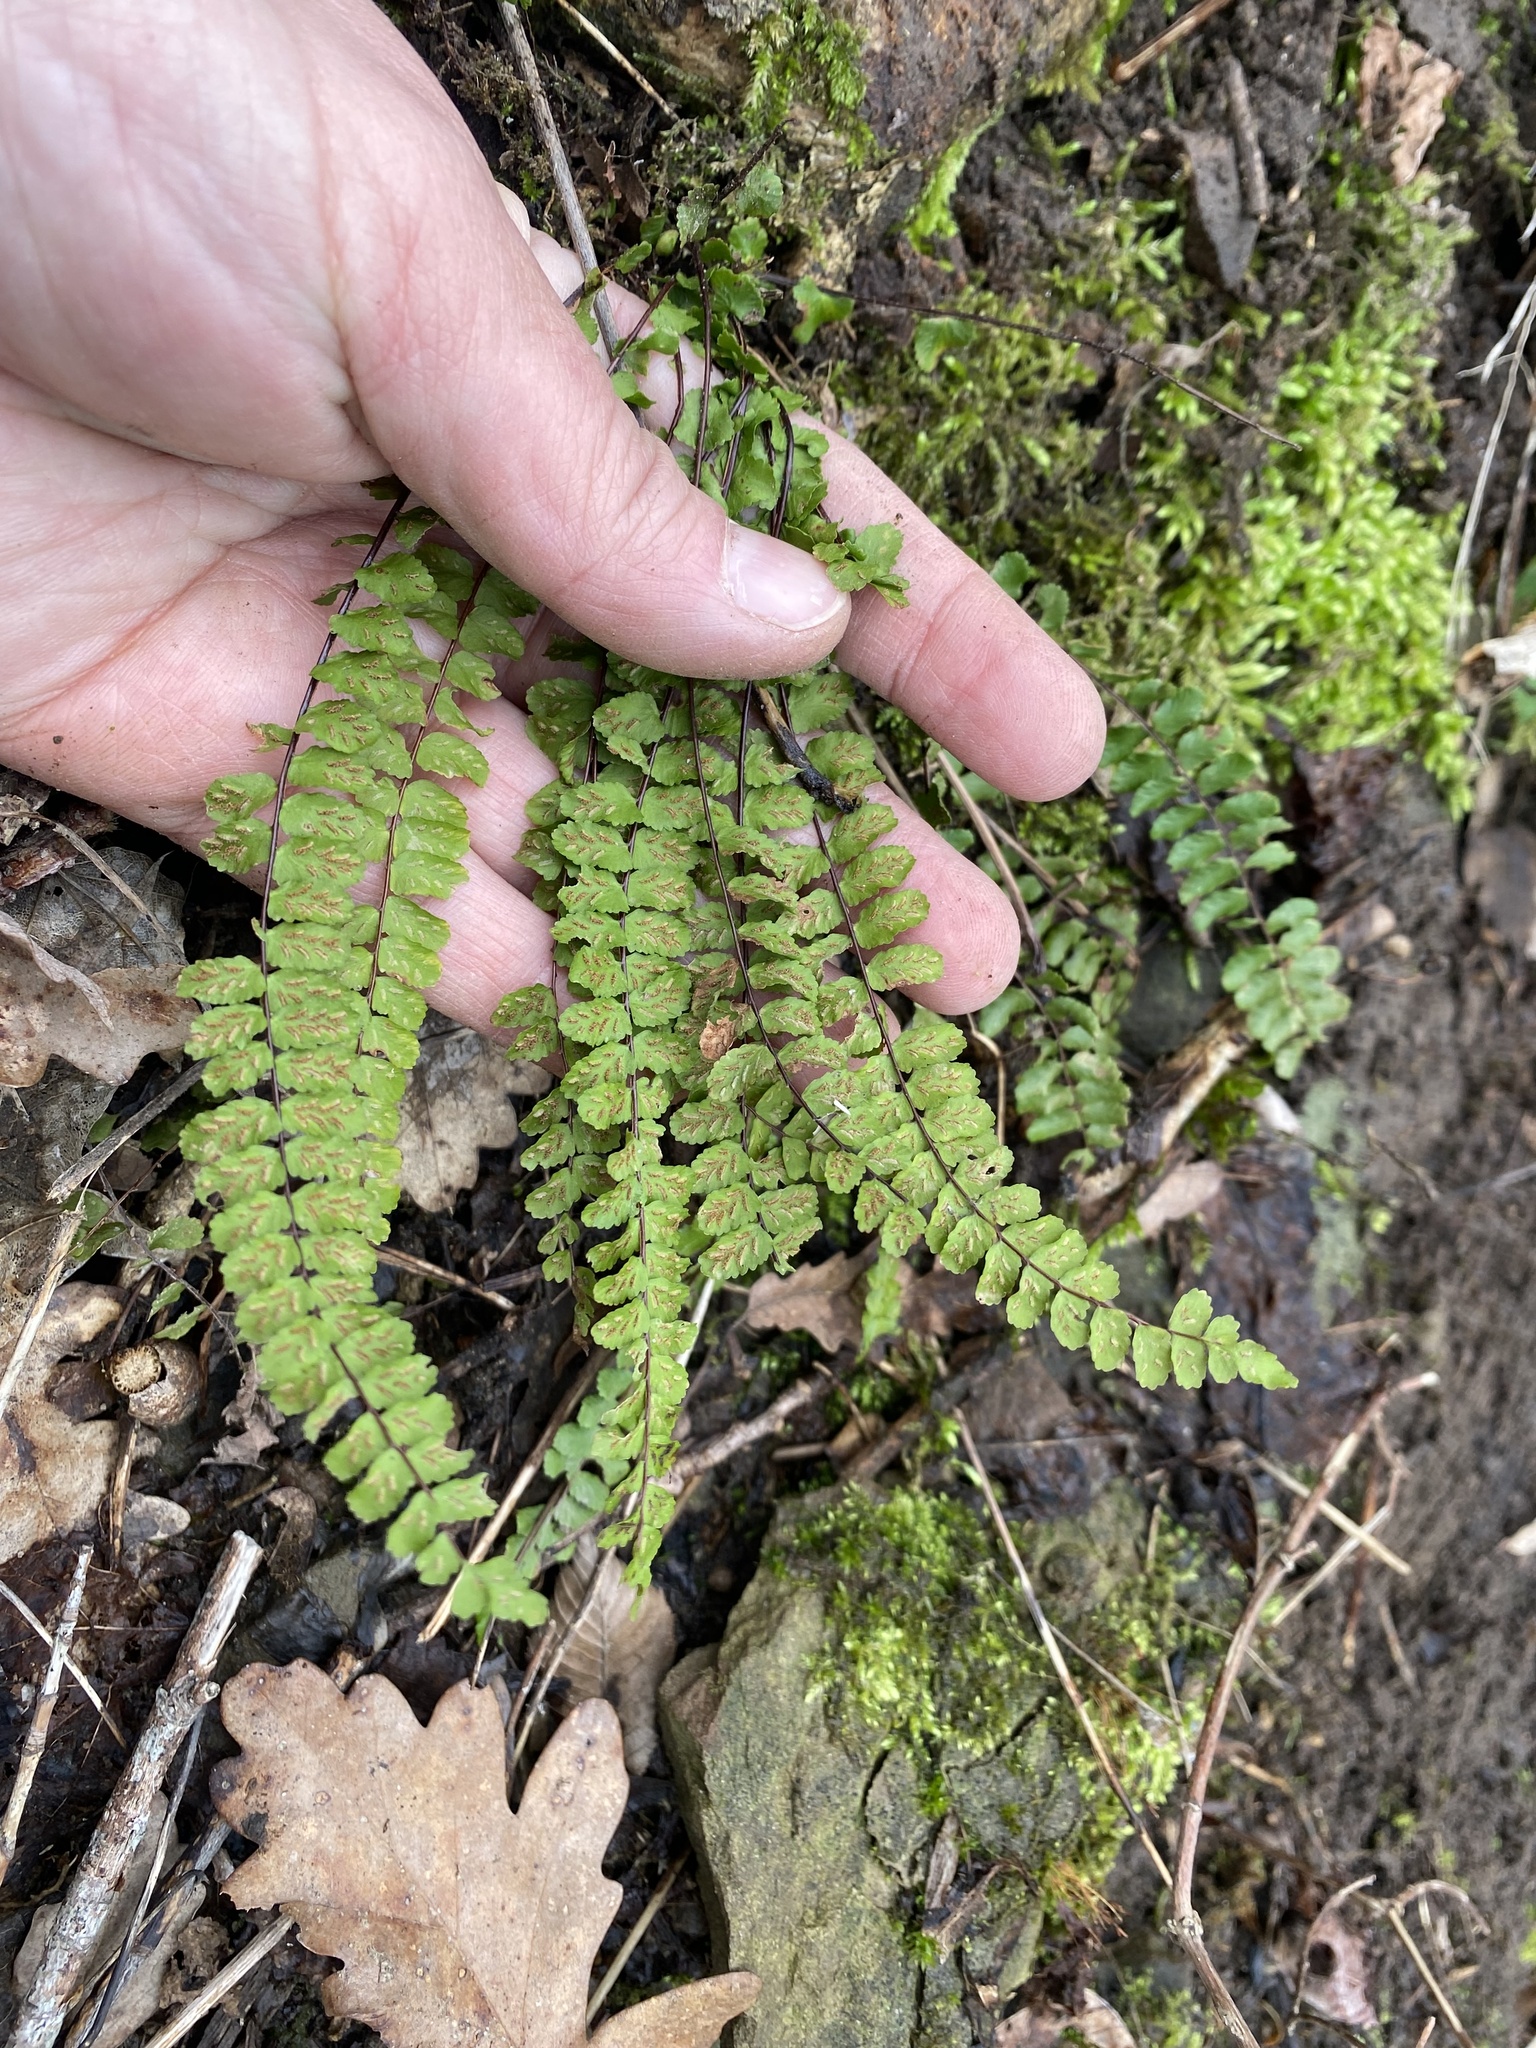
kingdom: Plantae
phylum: Tracheophyta
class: Polypodiopsida
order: Polypodiales
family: Aspleniaceae
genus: Asplenium
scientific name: Asplenium trichomanes
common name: Maidenhair spleenwort
